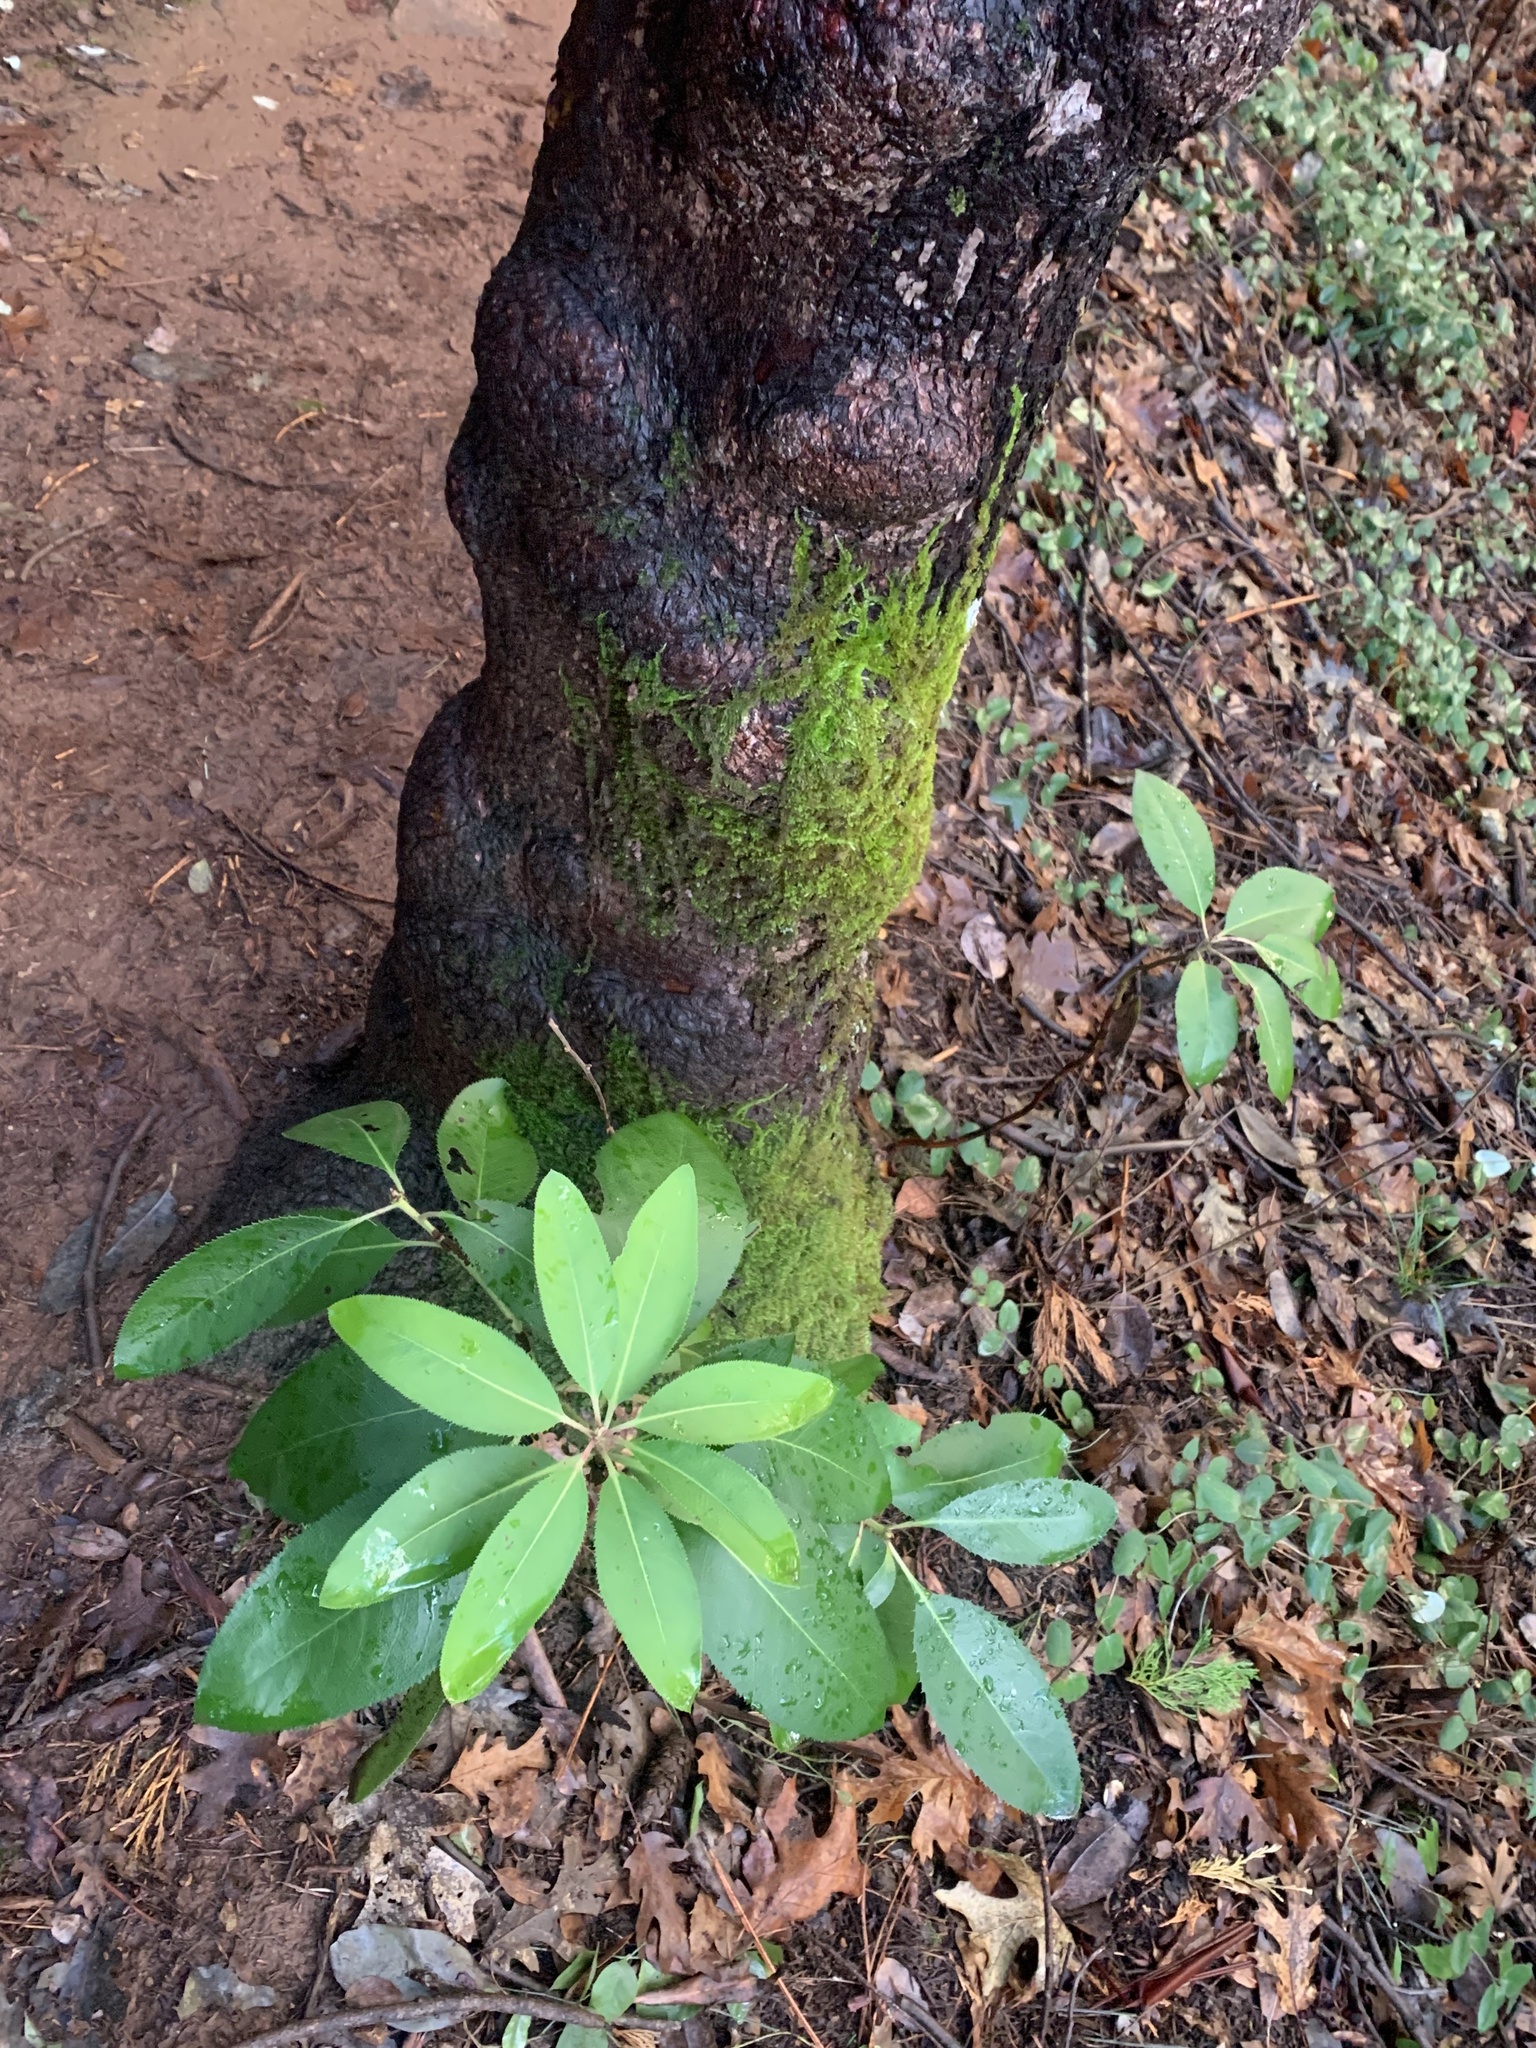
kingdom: Plantae
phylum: Tracheophyta
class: Magnoliopsida
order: Ericales
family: Ericaceae
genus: Arbutus
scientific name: Arbutus menziesii
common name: Pacific madrone
